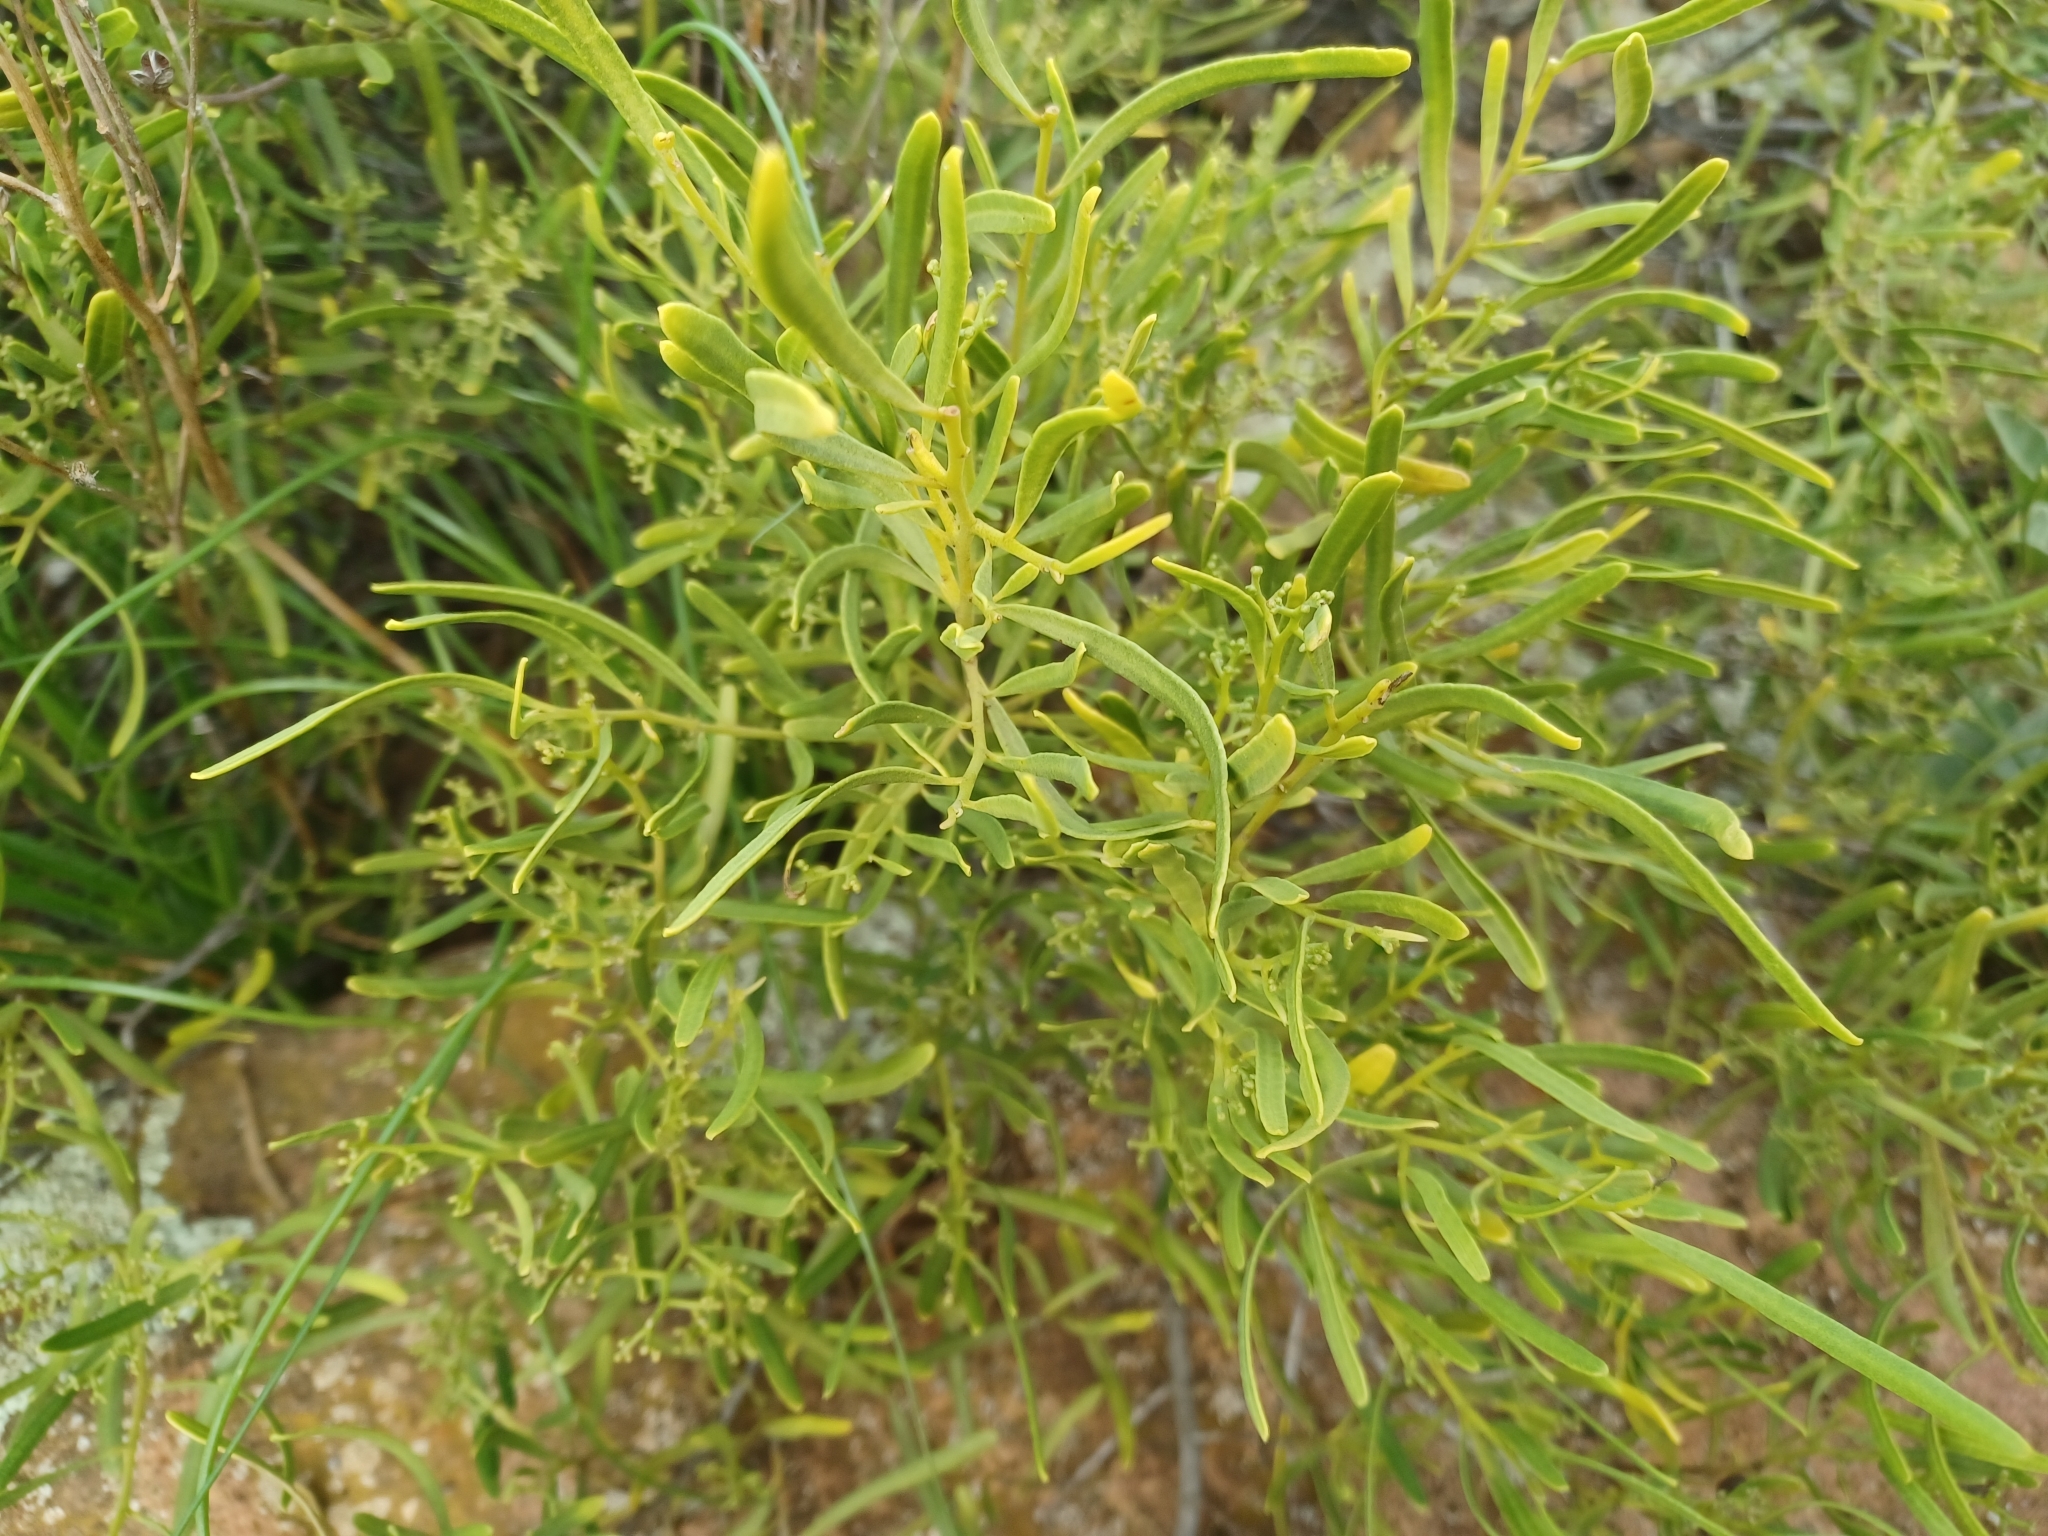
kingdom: Plantae
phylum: Tracheophyta
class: Magnoliopsida
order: Sapindales
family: Rutaceae
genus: Geijera
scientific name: Geijera linearifolia
